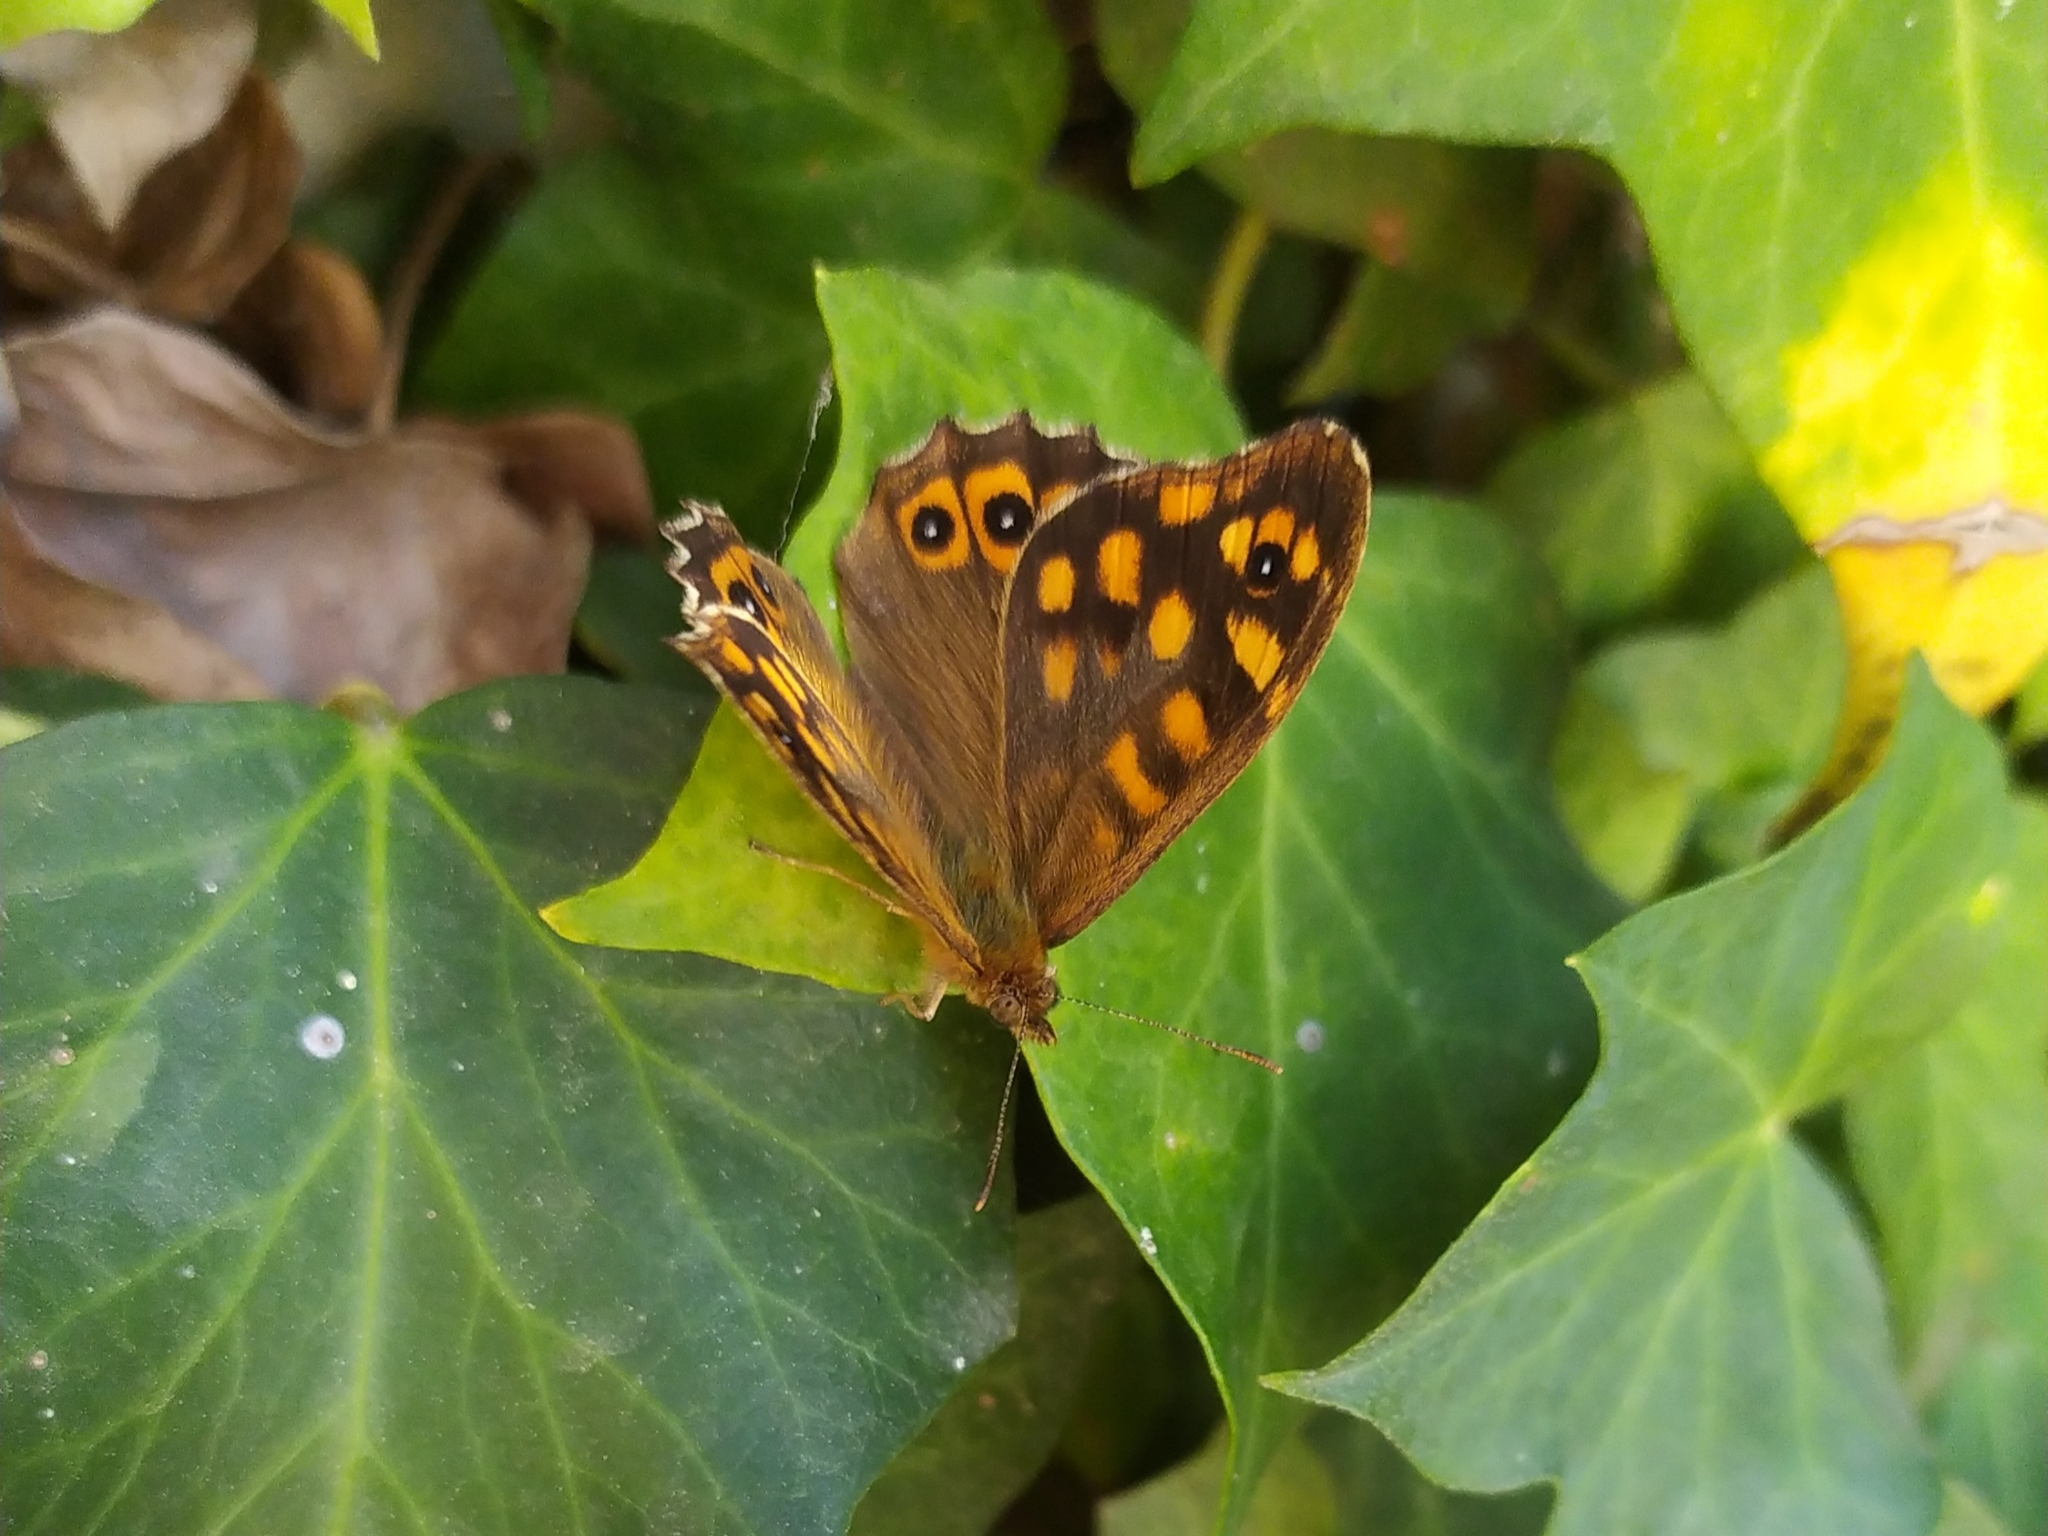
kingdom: Animalia
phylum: Arthropoda
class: Insecta
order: Lepidoptera
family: Nymphalidae
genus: Pararge
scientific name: Pararge aegeria
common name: Speckled wood
